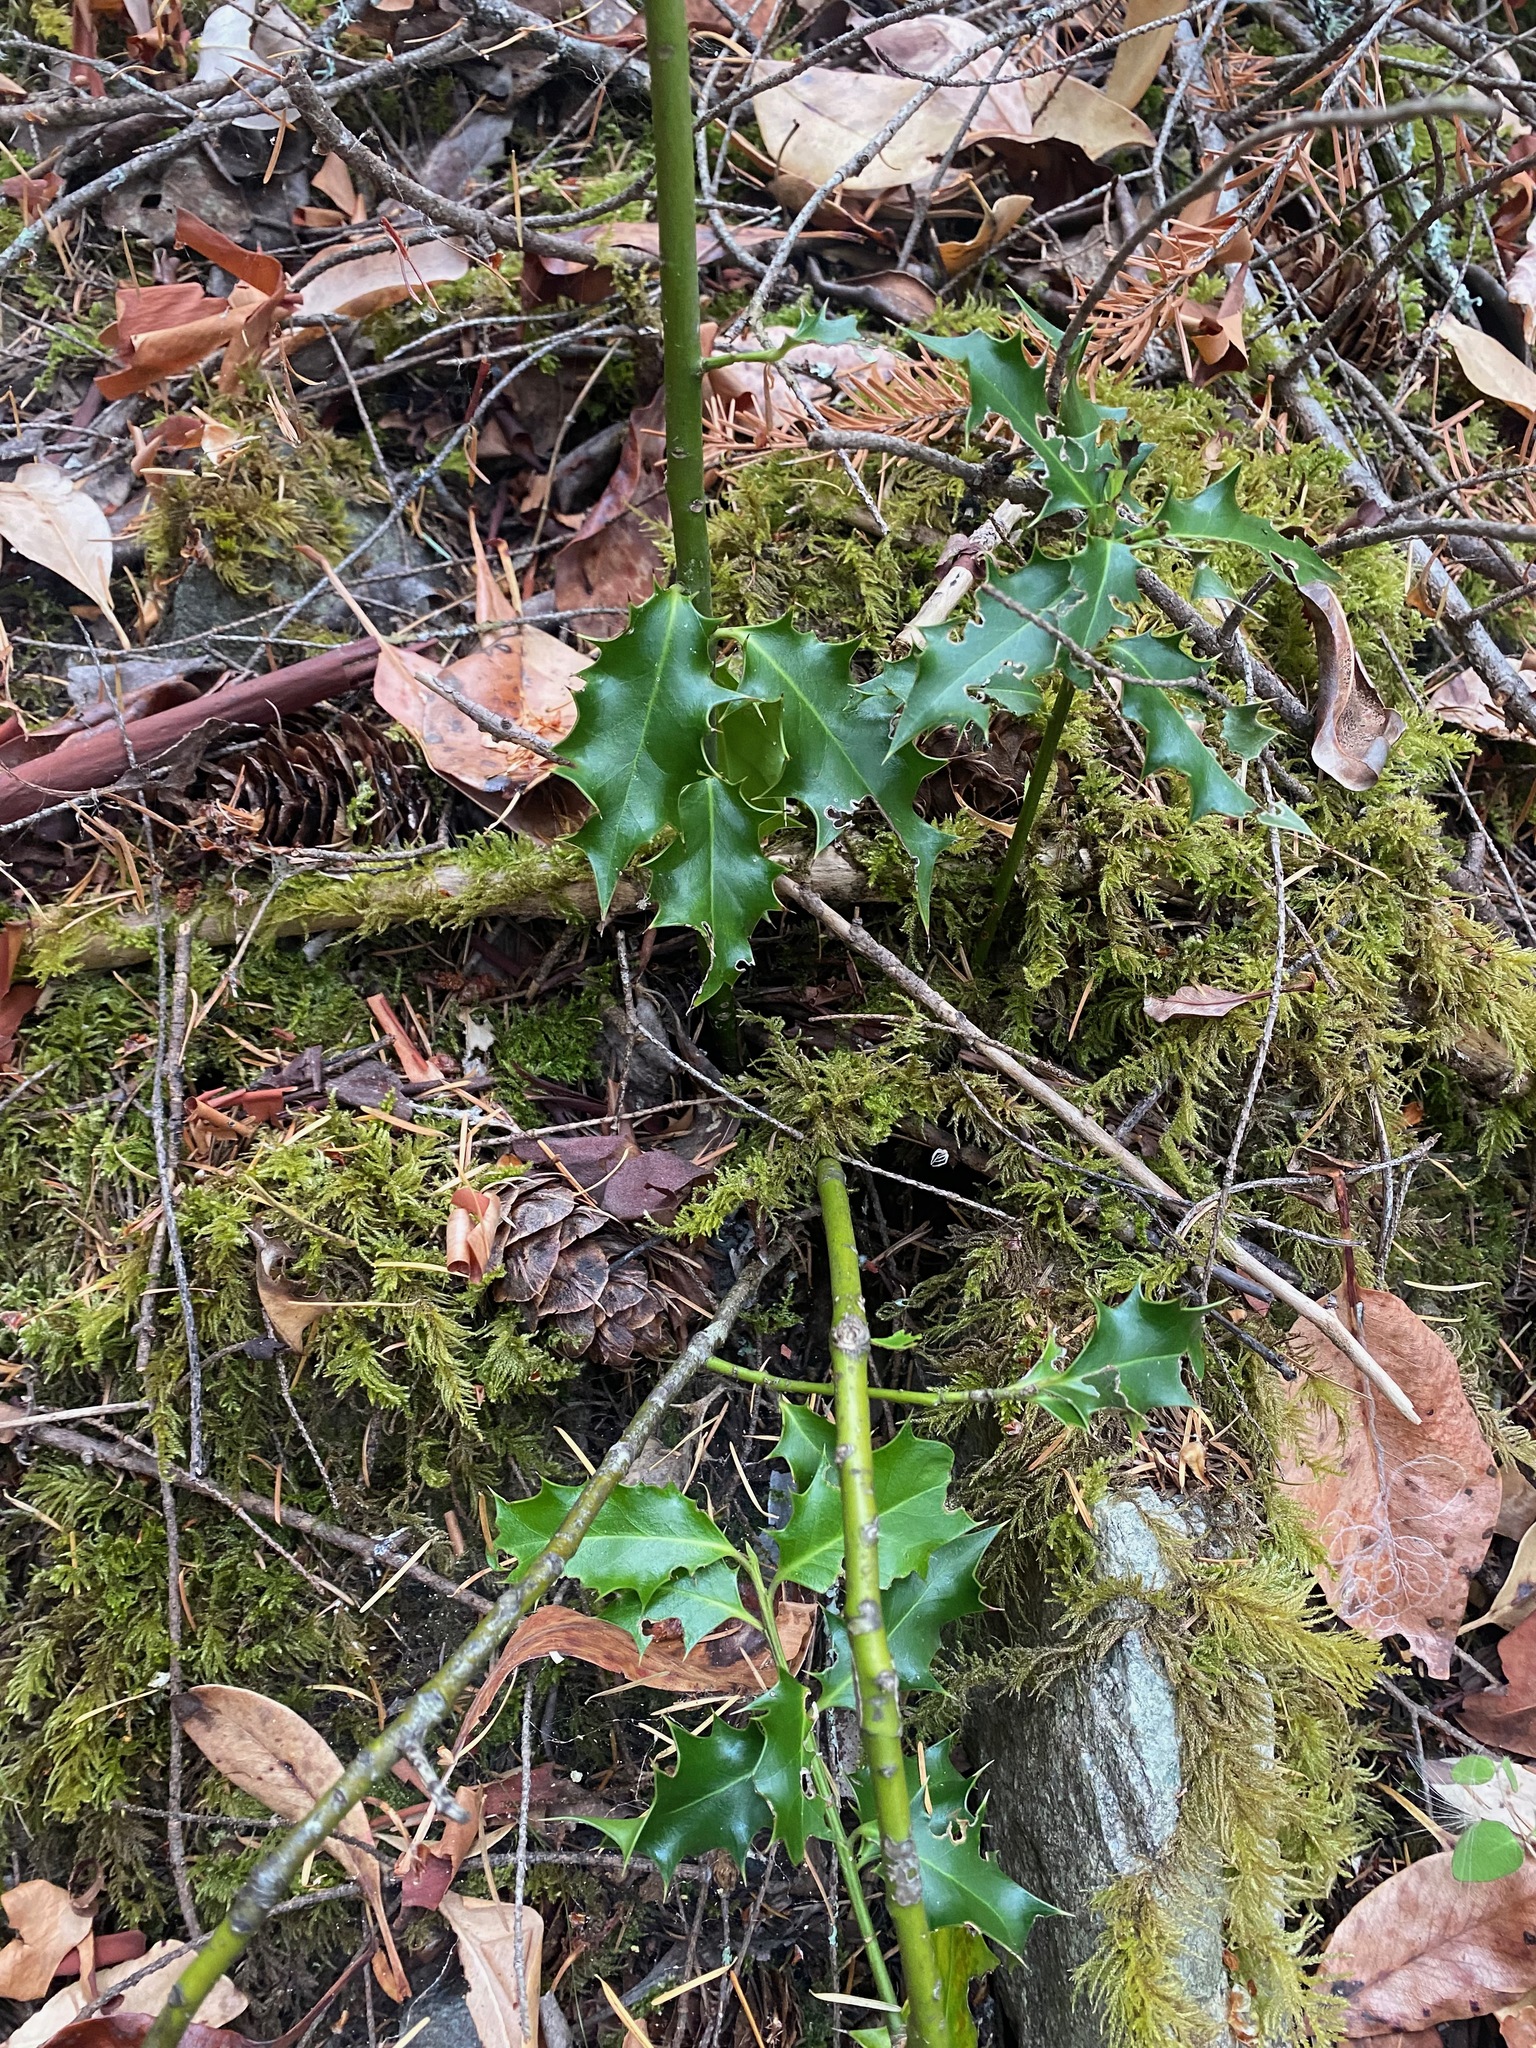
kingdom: Plantae
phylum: Tracheophyta
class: Magnoliopsida
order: Aquifoliales
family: Aquifoliaceae
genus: Ilex
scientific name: Ilex aquifolium
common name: English holly
